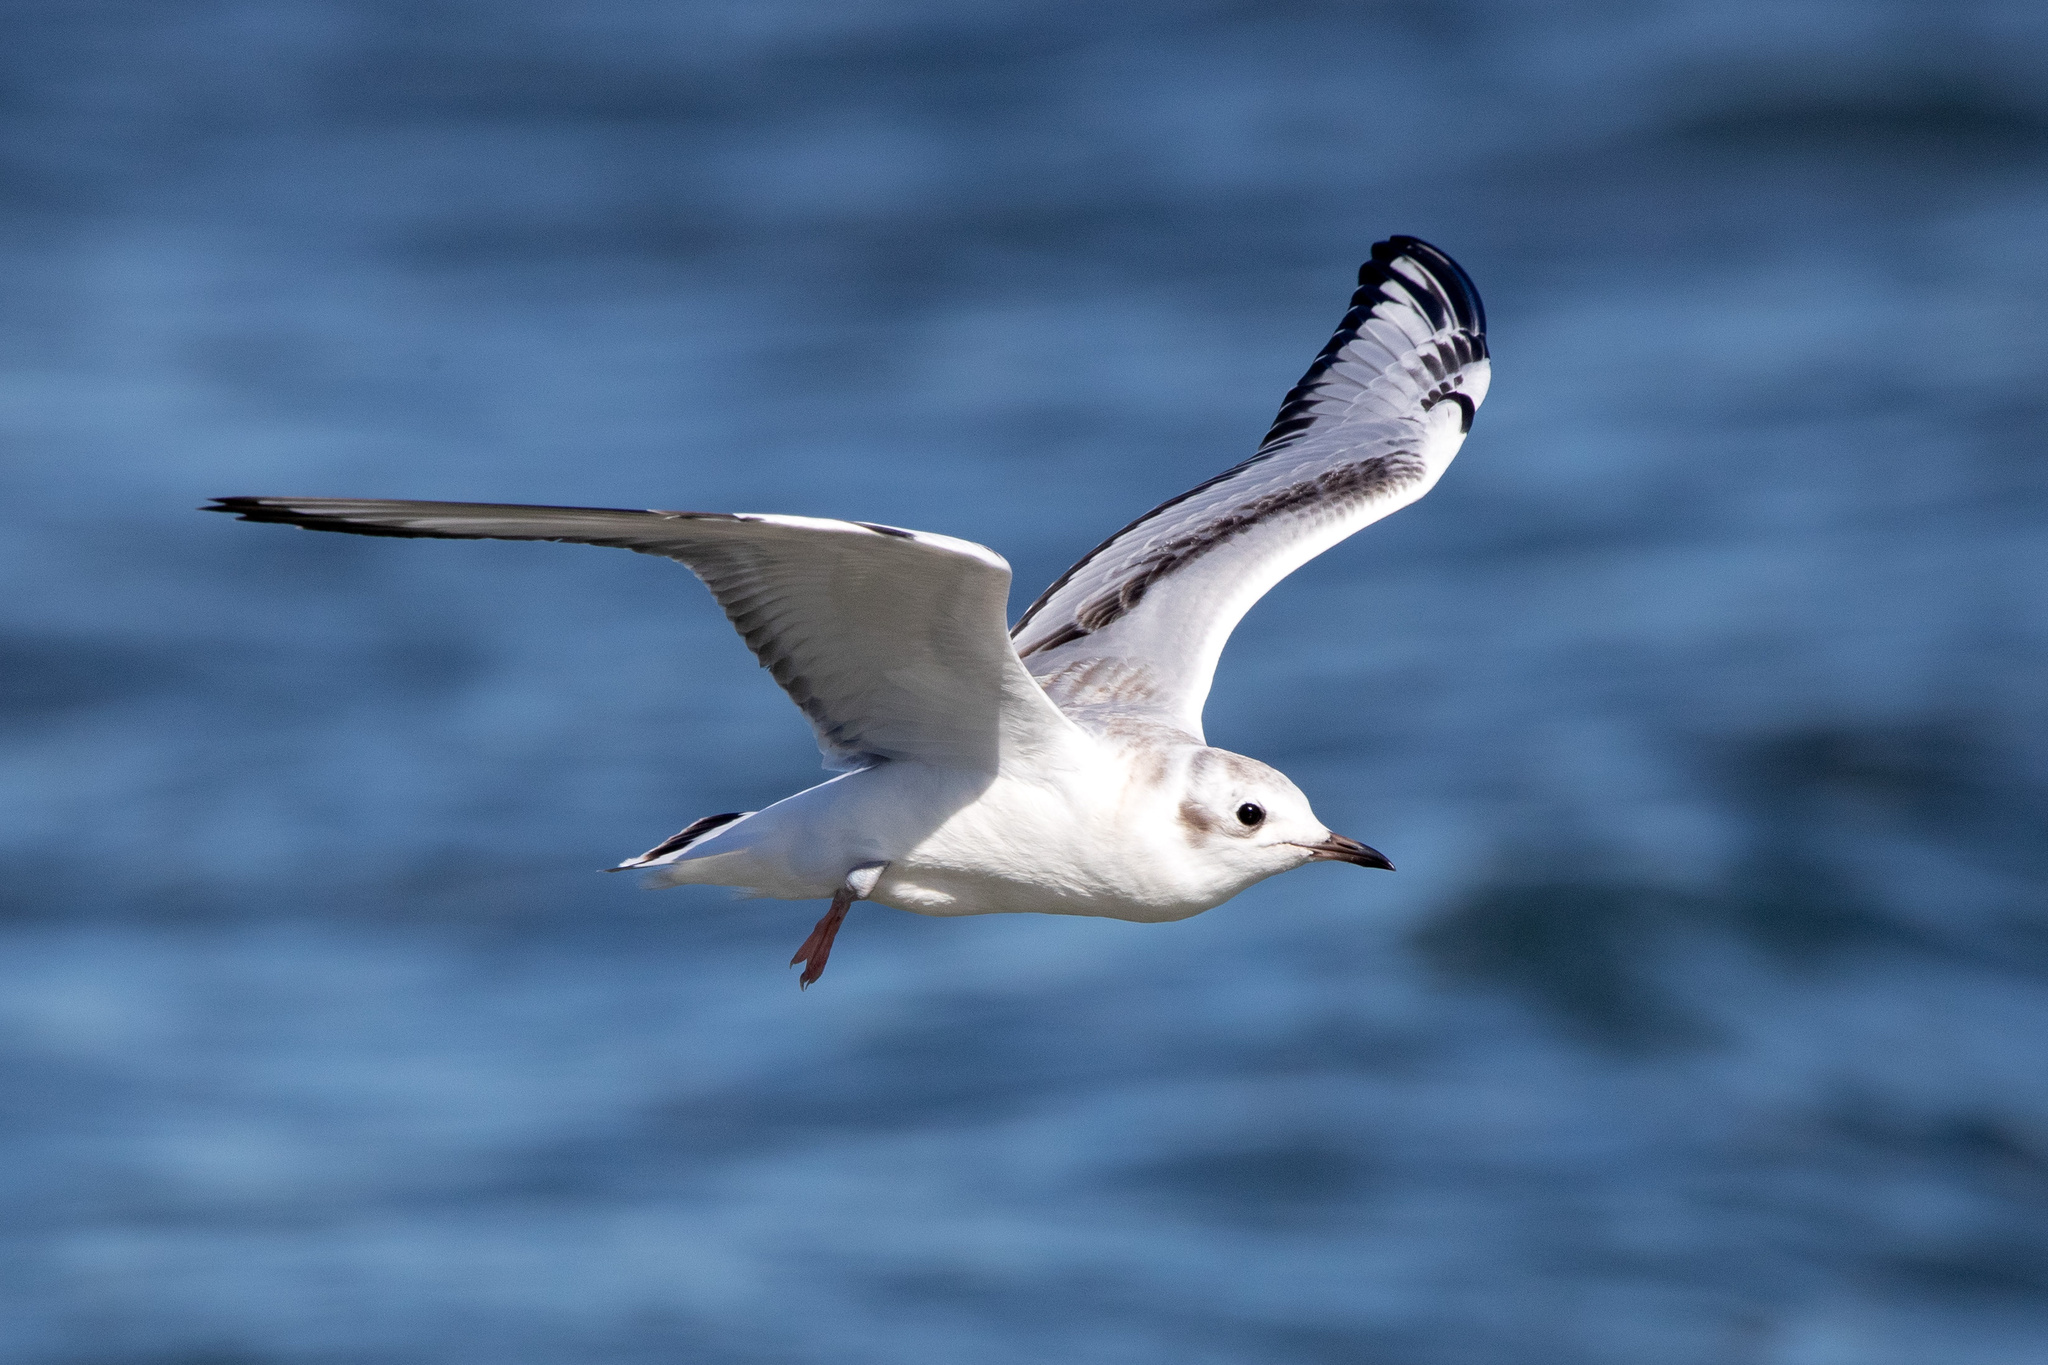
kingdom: Animalia
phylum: Chordata
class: Aves
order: Charadriiformes
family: Laridae
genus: Chroicocephalus
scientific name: Chroicocephalus philadelphia
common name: Bonaparte's gull
